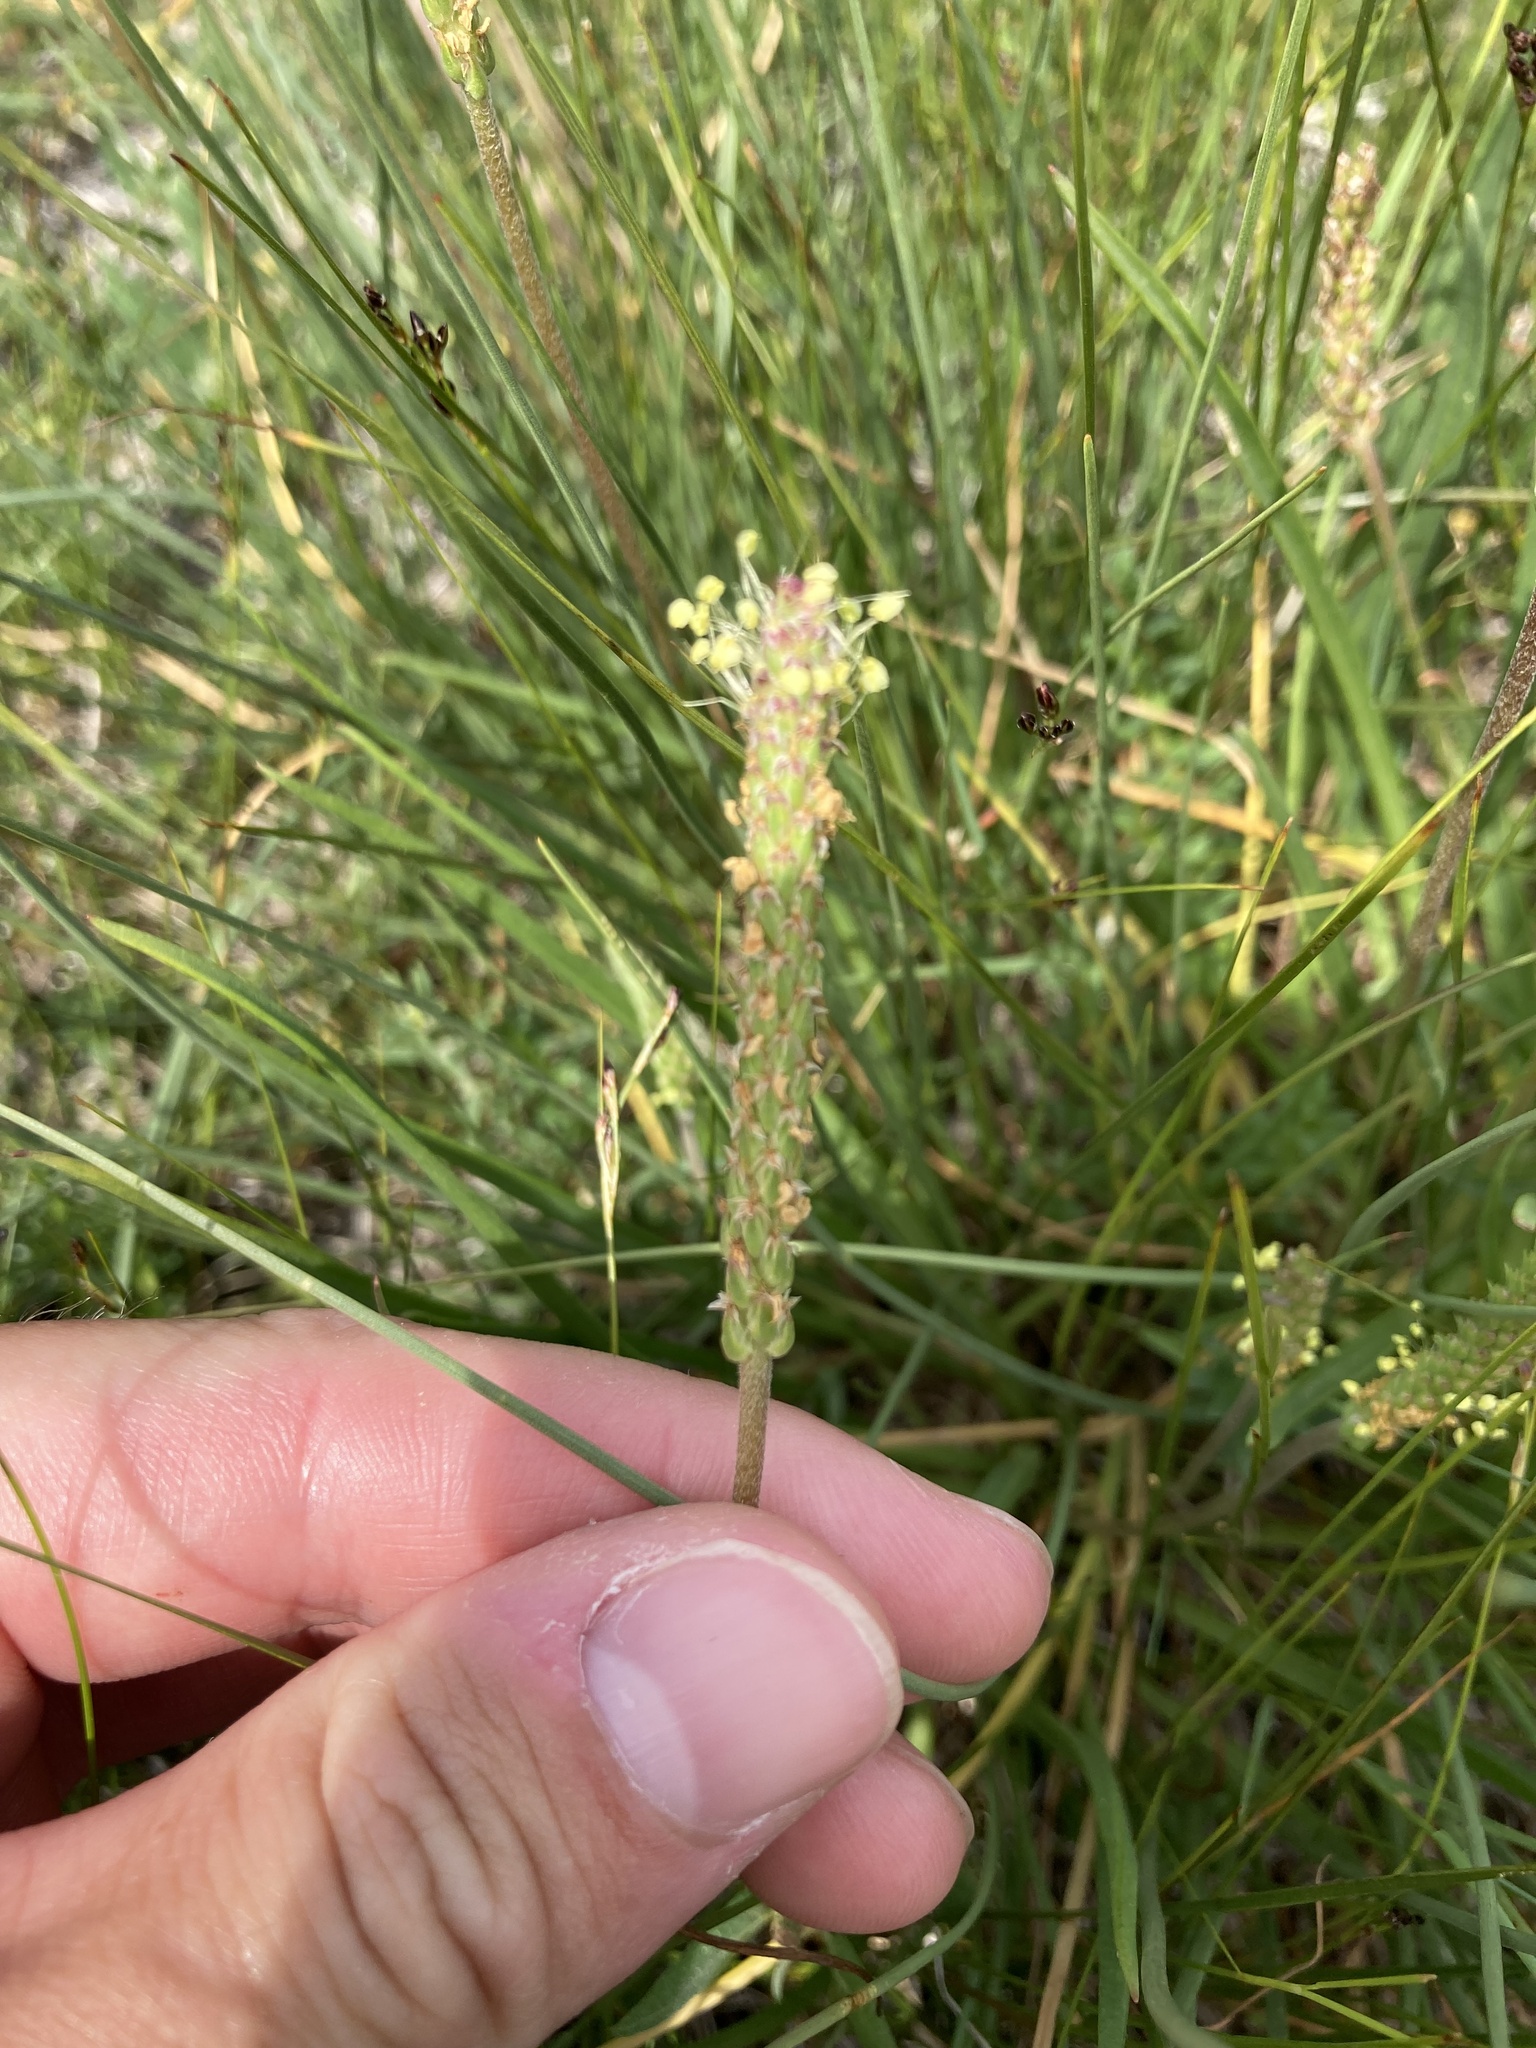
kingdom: Plantae
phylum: Tracheophyta
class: Magnoliopsida
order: Lamiales
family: Plantaginaceae
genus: Plantago
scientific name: Plantago maritima
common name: Sea plantain
